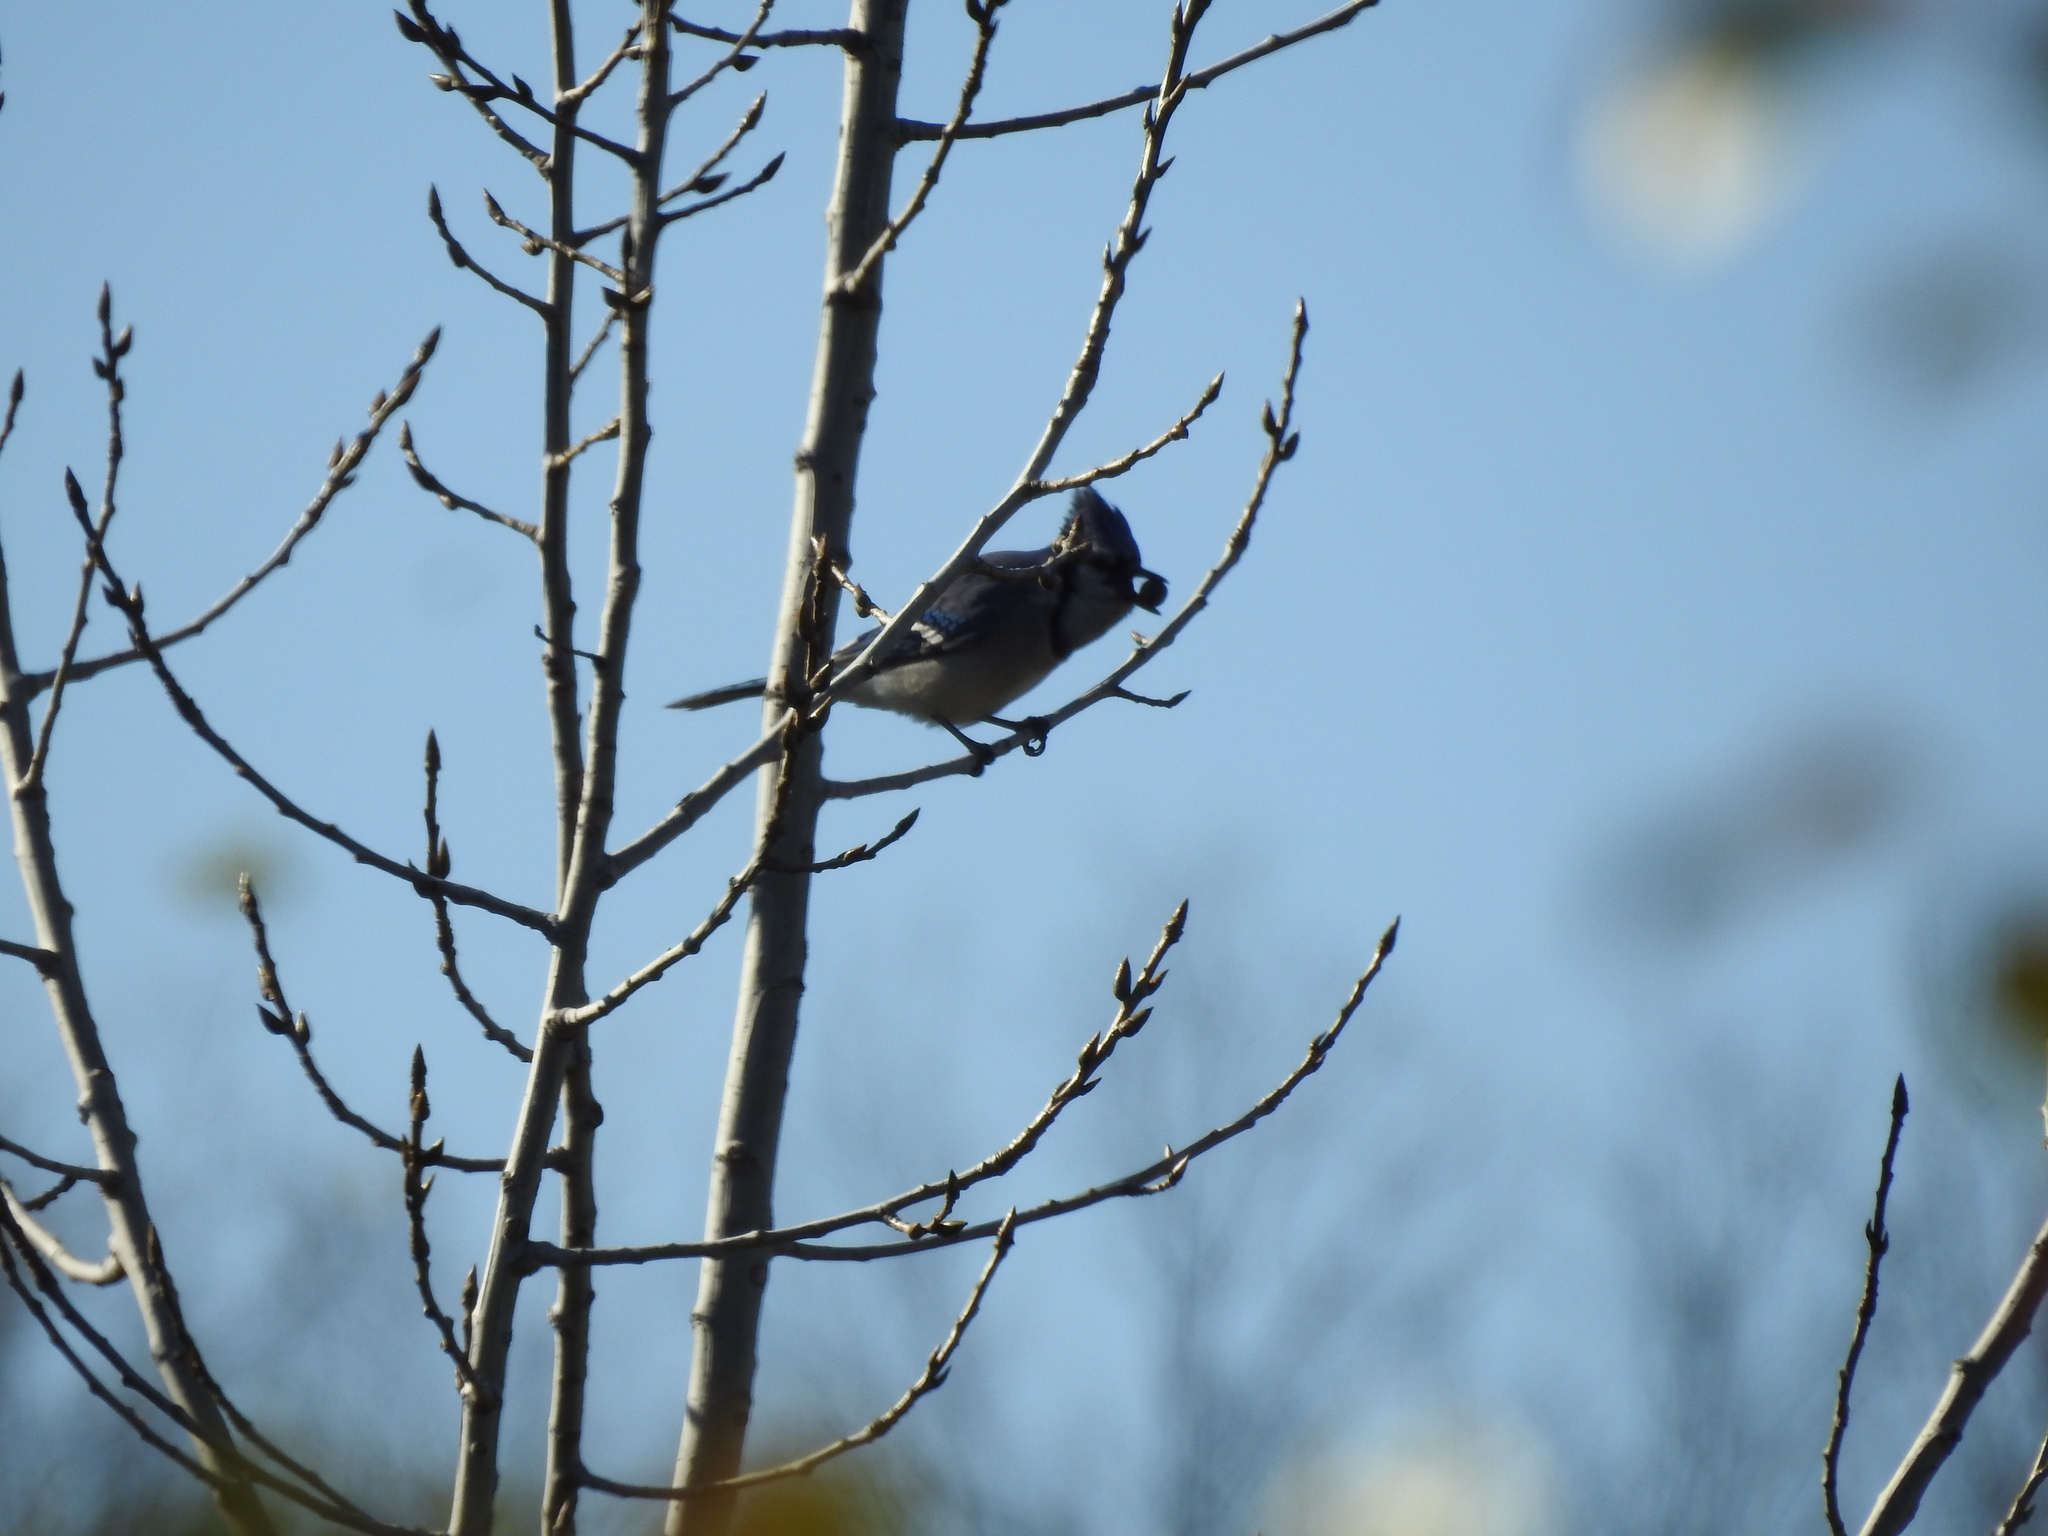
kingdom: Animalia
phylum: Chordata
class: Aves
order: Passeriformes
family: Corvidae
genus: Cyanocitta
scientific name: Cyanocitta cristata
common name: Blue jay
